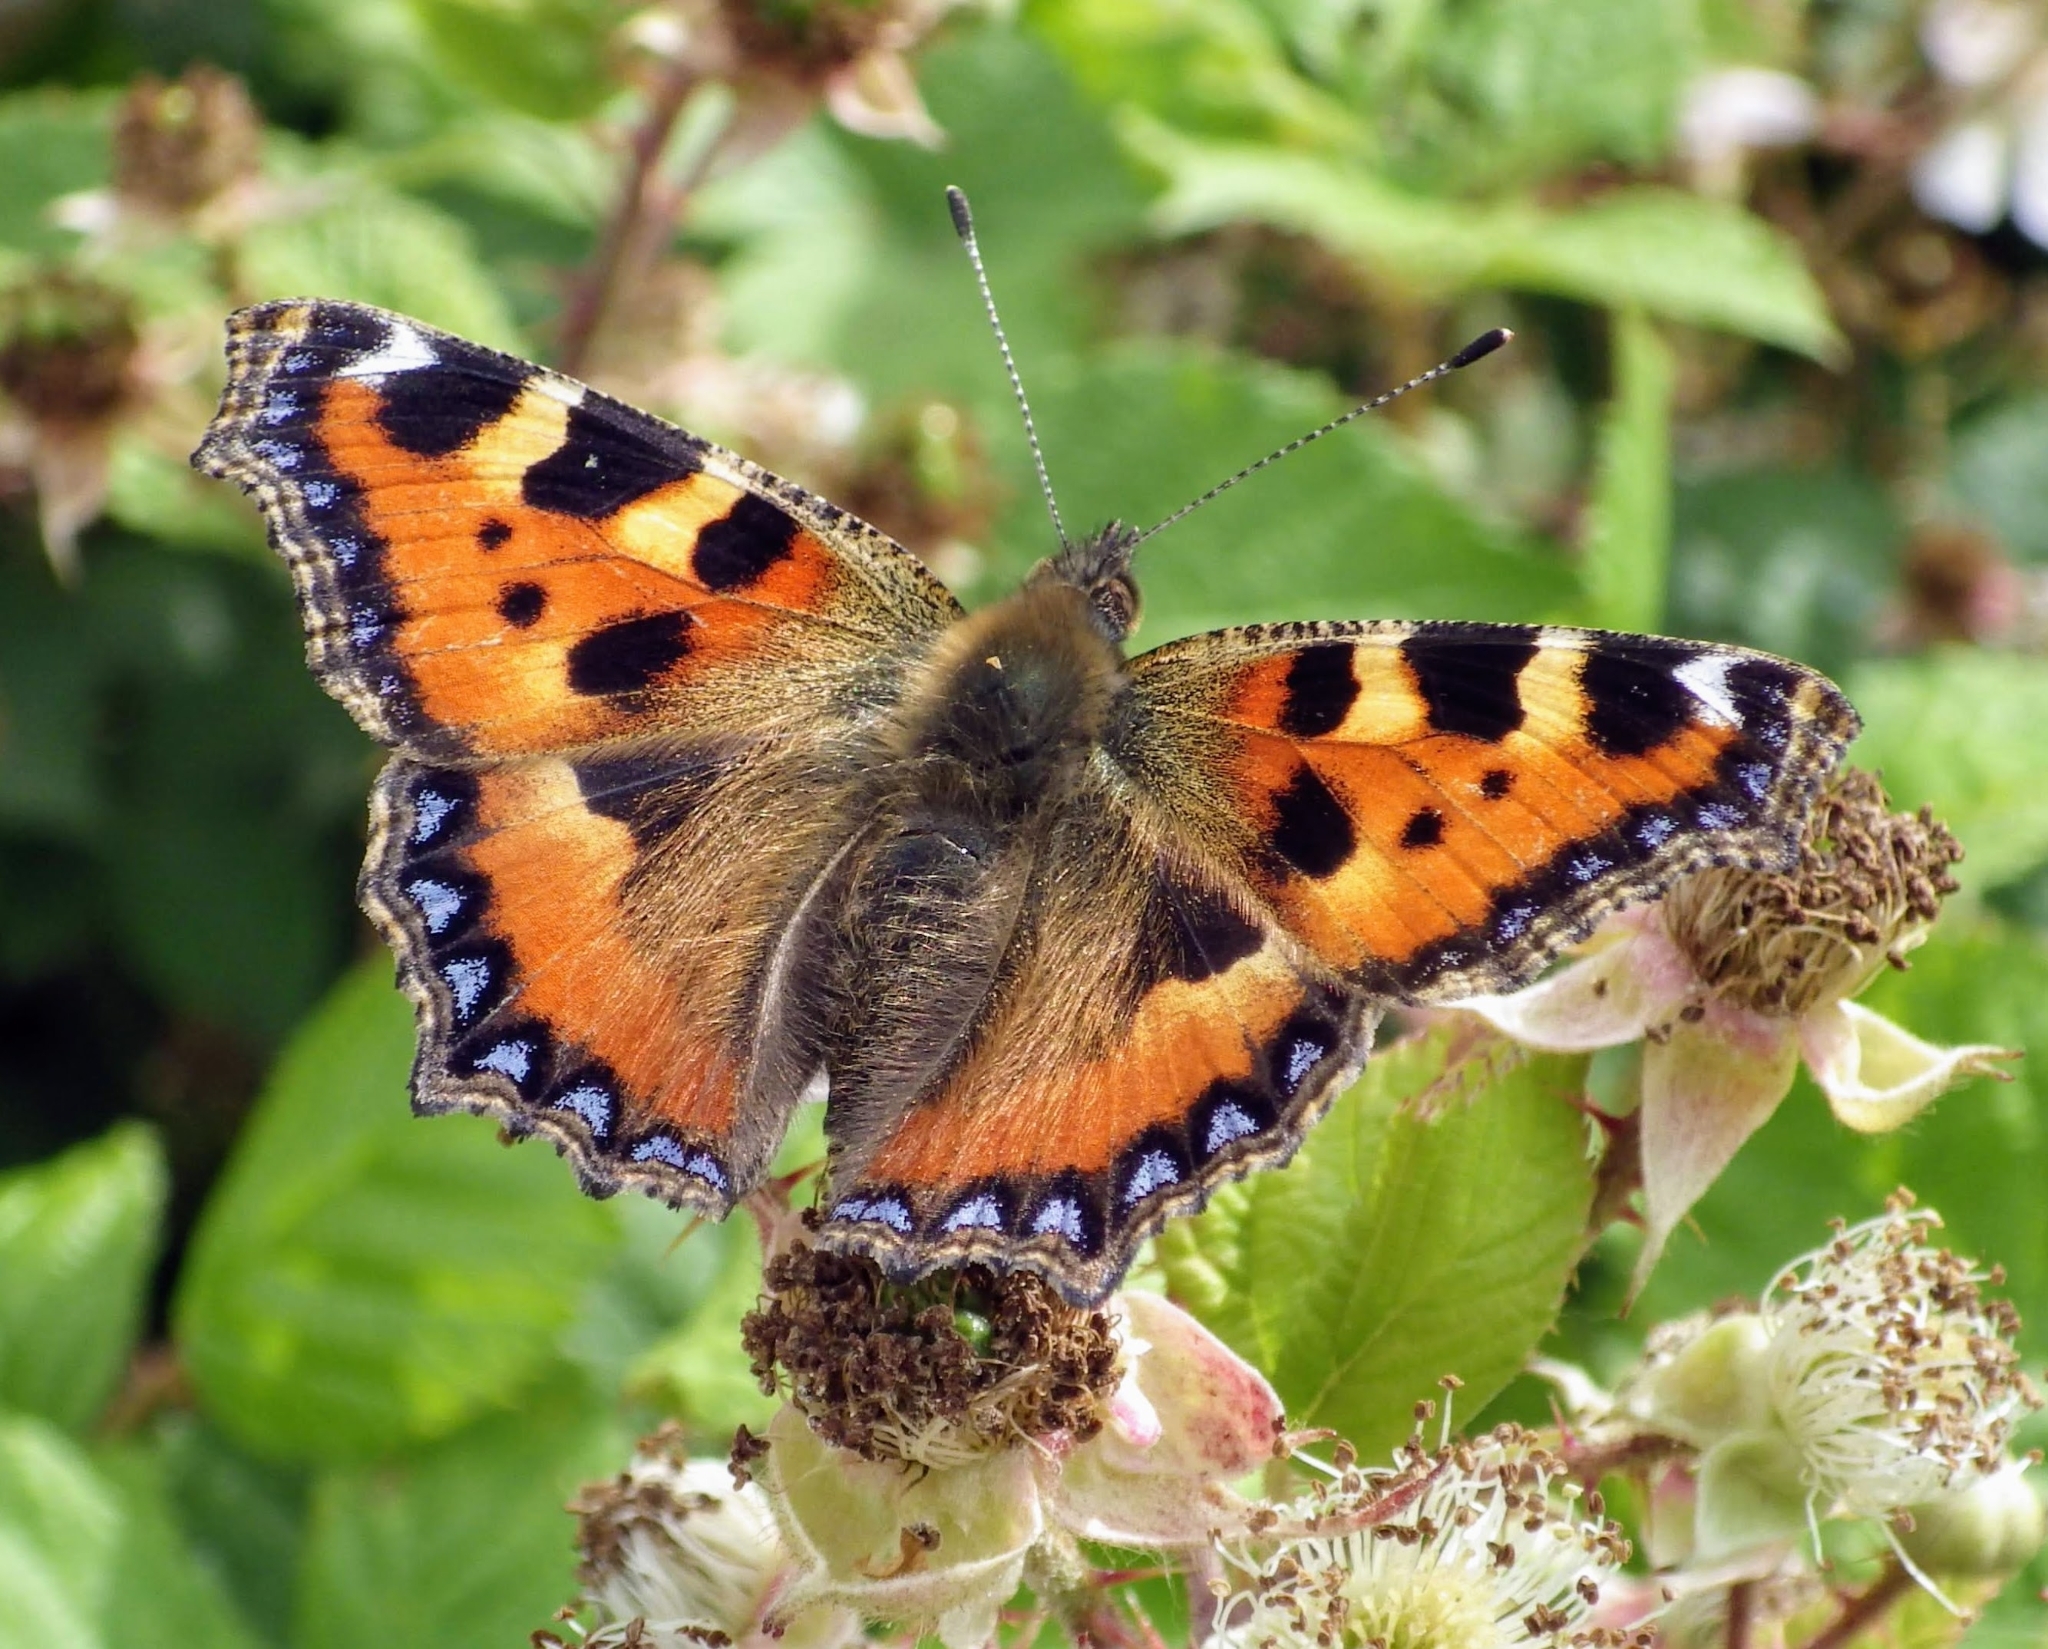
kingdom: Animalia
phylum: Arthropoda
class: Insecta
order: Lepidoptera
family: Nymphalidae
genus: Aglais
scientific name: Aglais urticae
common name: Small tortoiseshell
